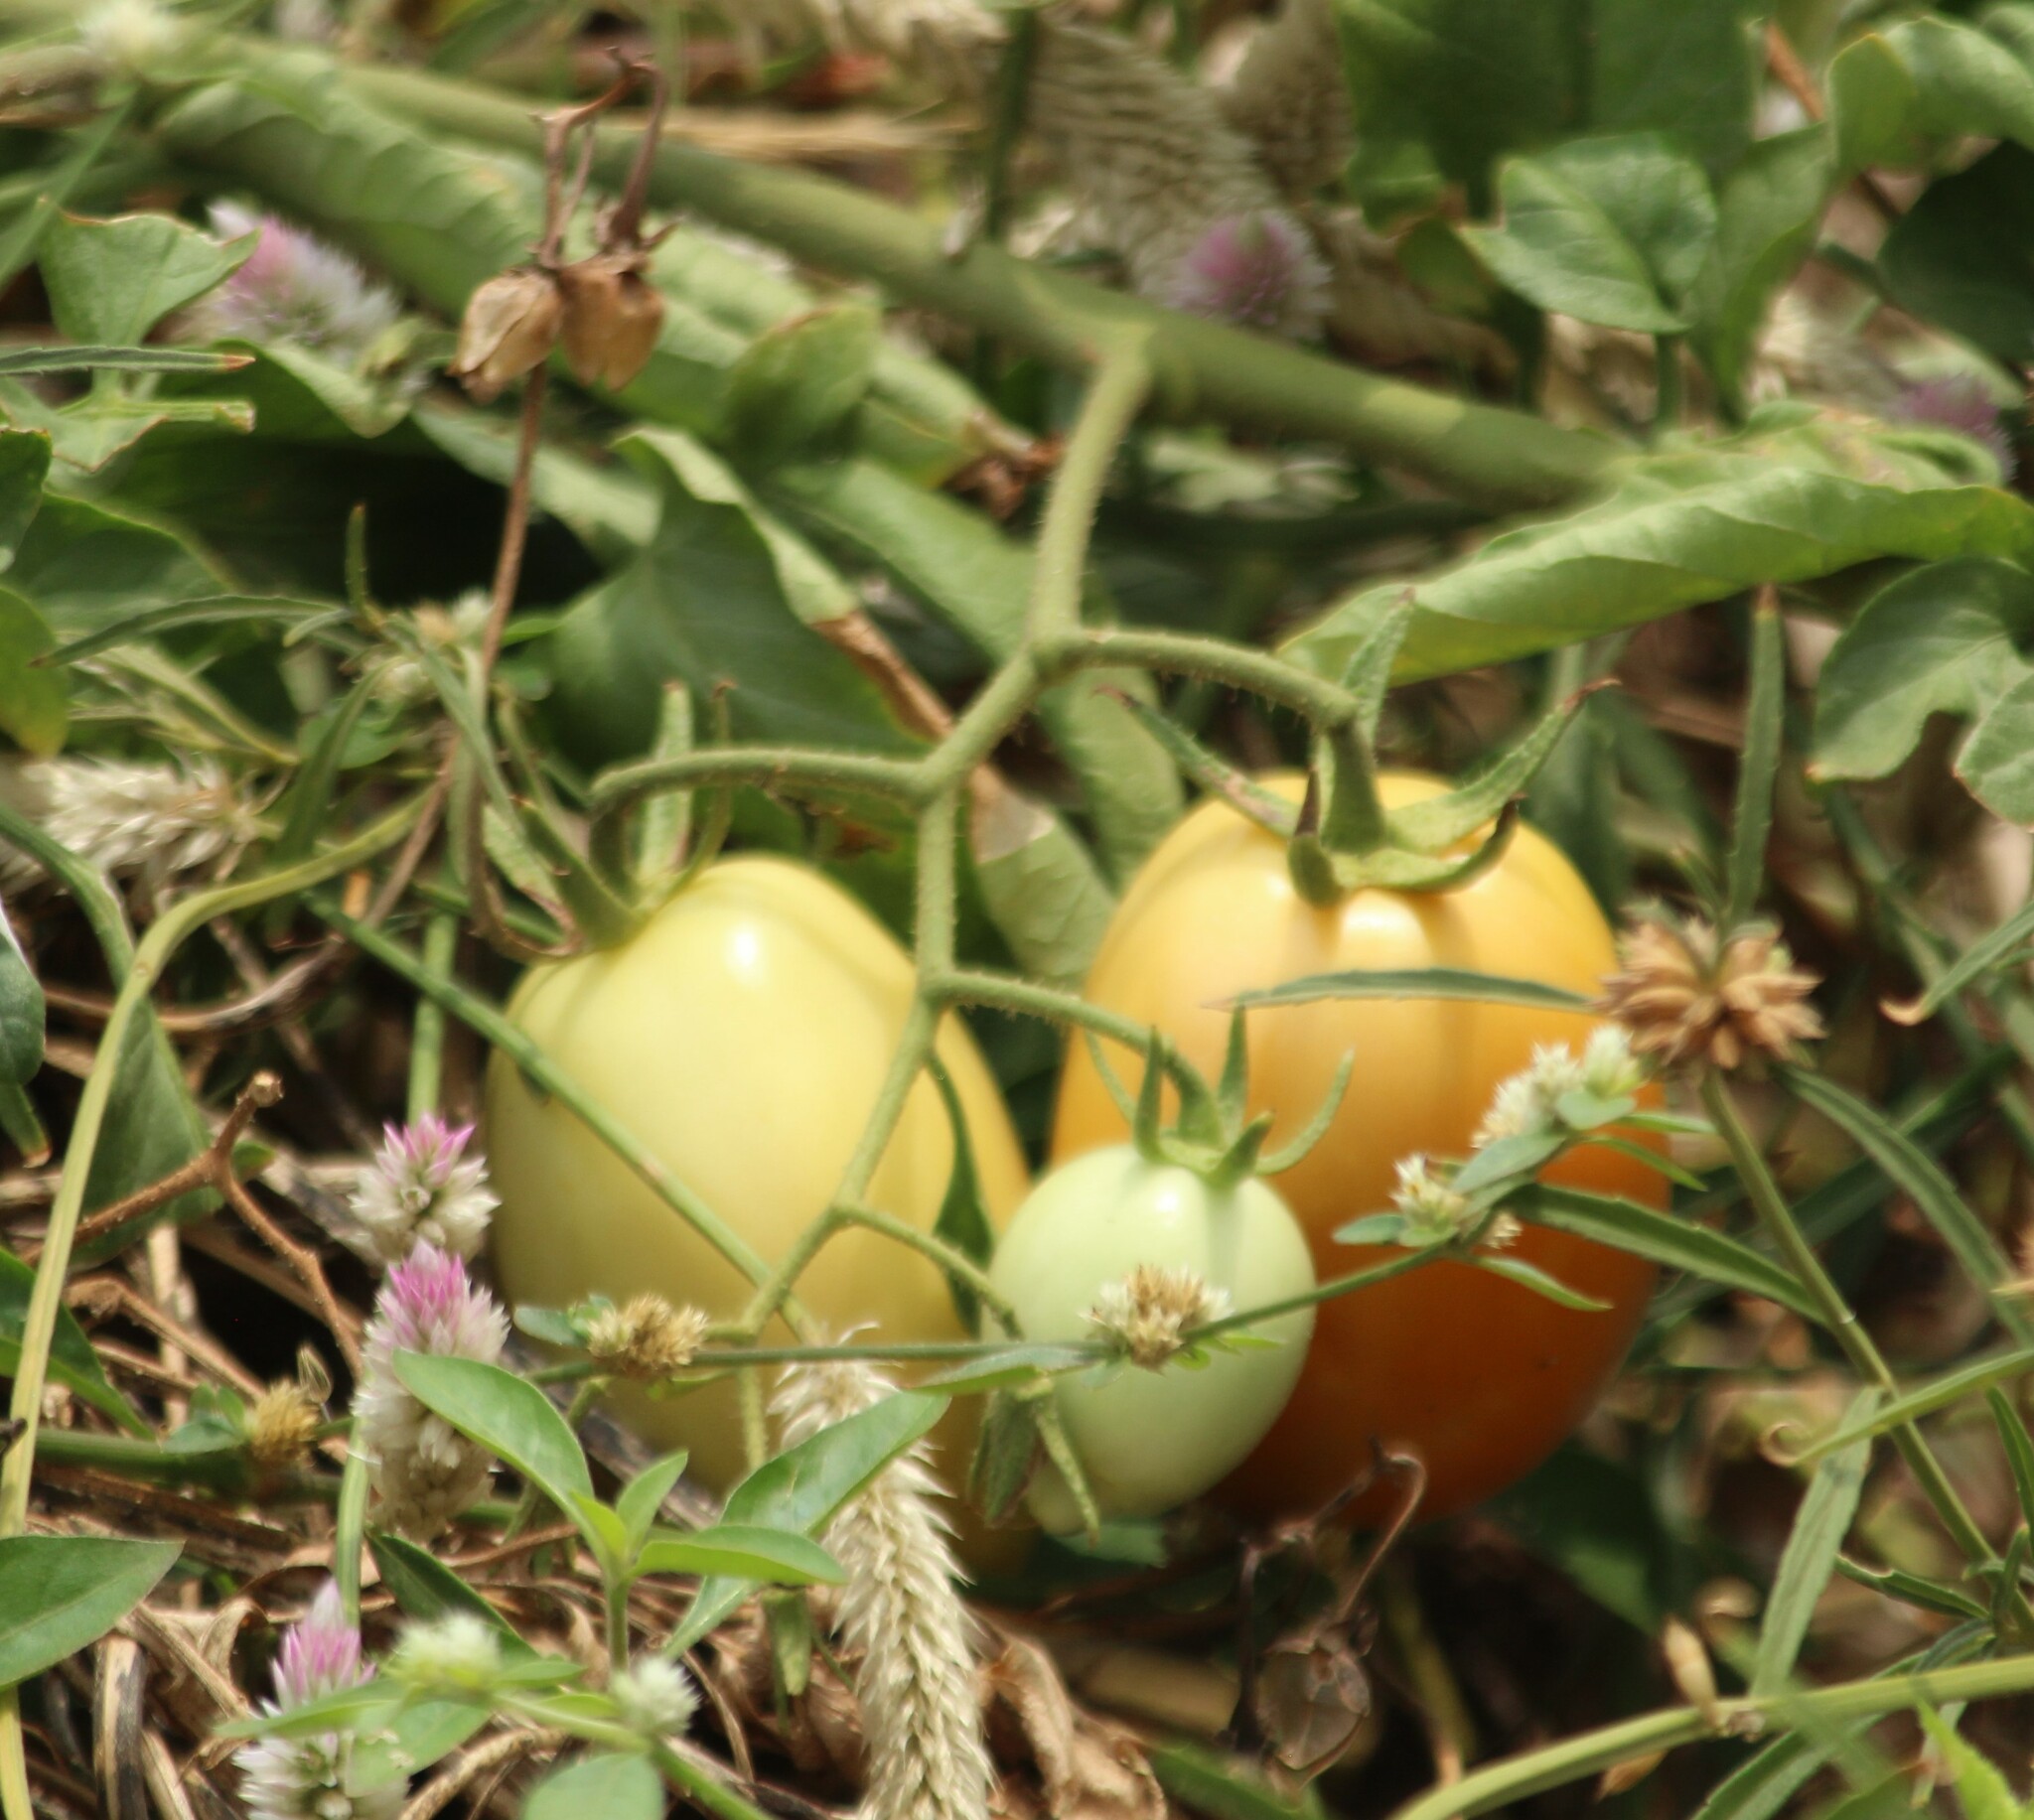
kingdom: Plantae
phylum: Tracheophyta
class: Magnoliopsida
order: Solanales
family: Solanaceae
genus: Solanum
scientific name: Solanum lycopersicum
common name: Garden tomato
